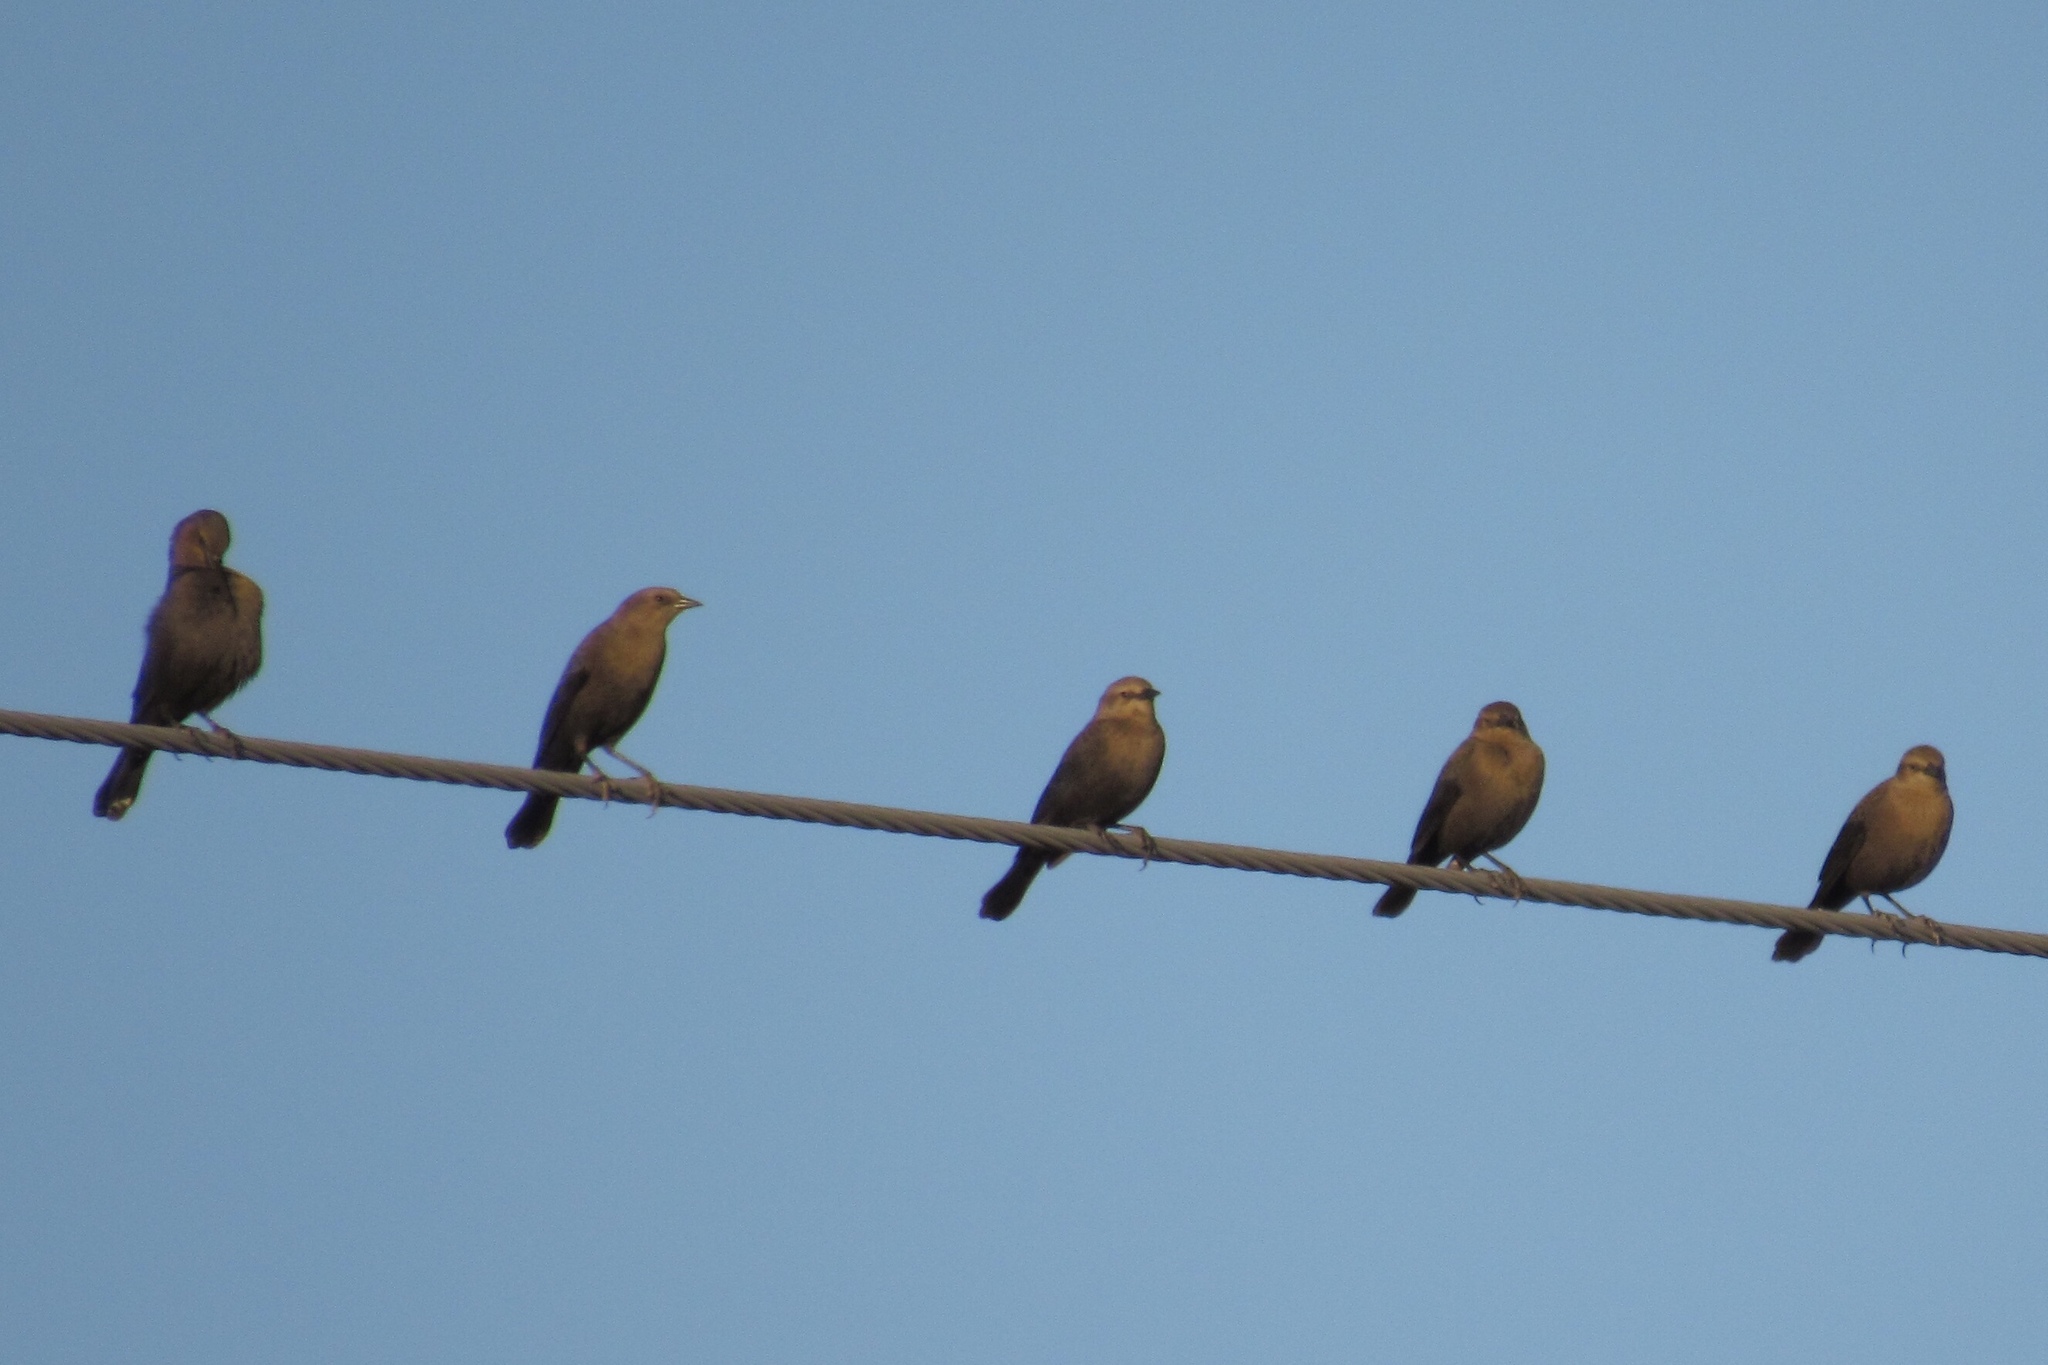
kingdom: Animalia
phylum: Chordata
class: Aves
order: Passeriformes
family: Icteridae
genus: Euphagus
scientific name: Euphagus cyanocephalus
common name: Brewer's blackbird
